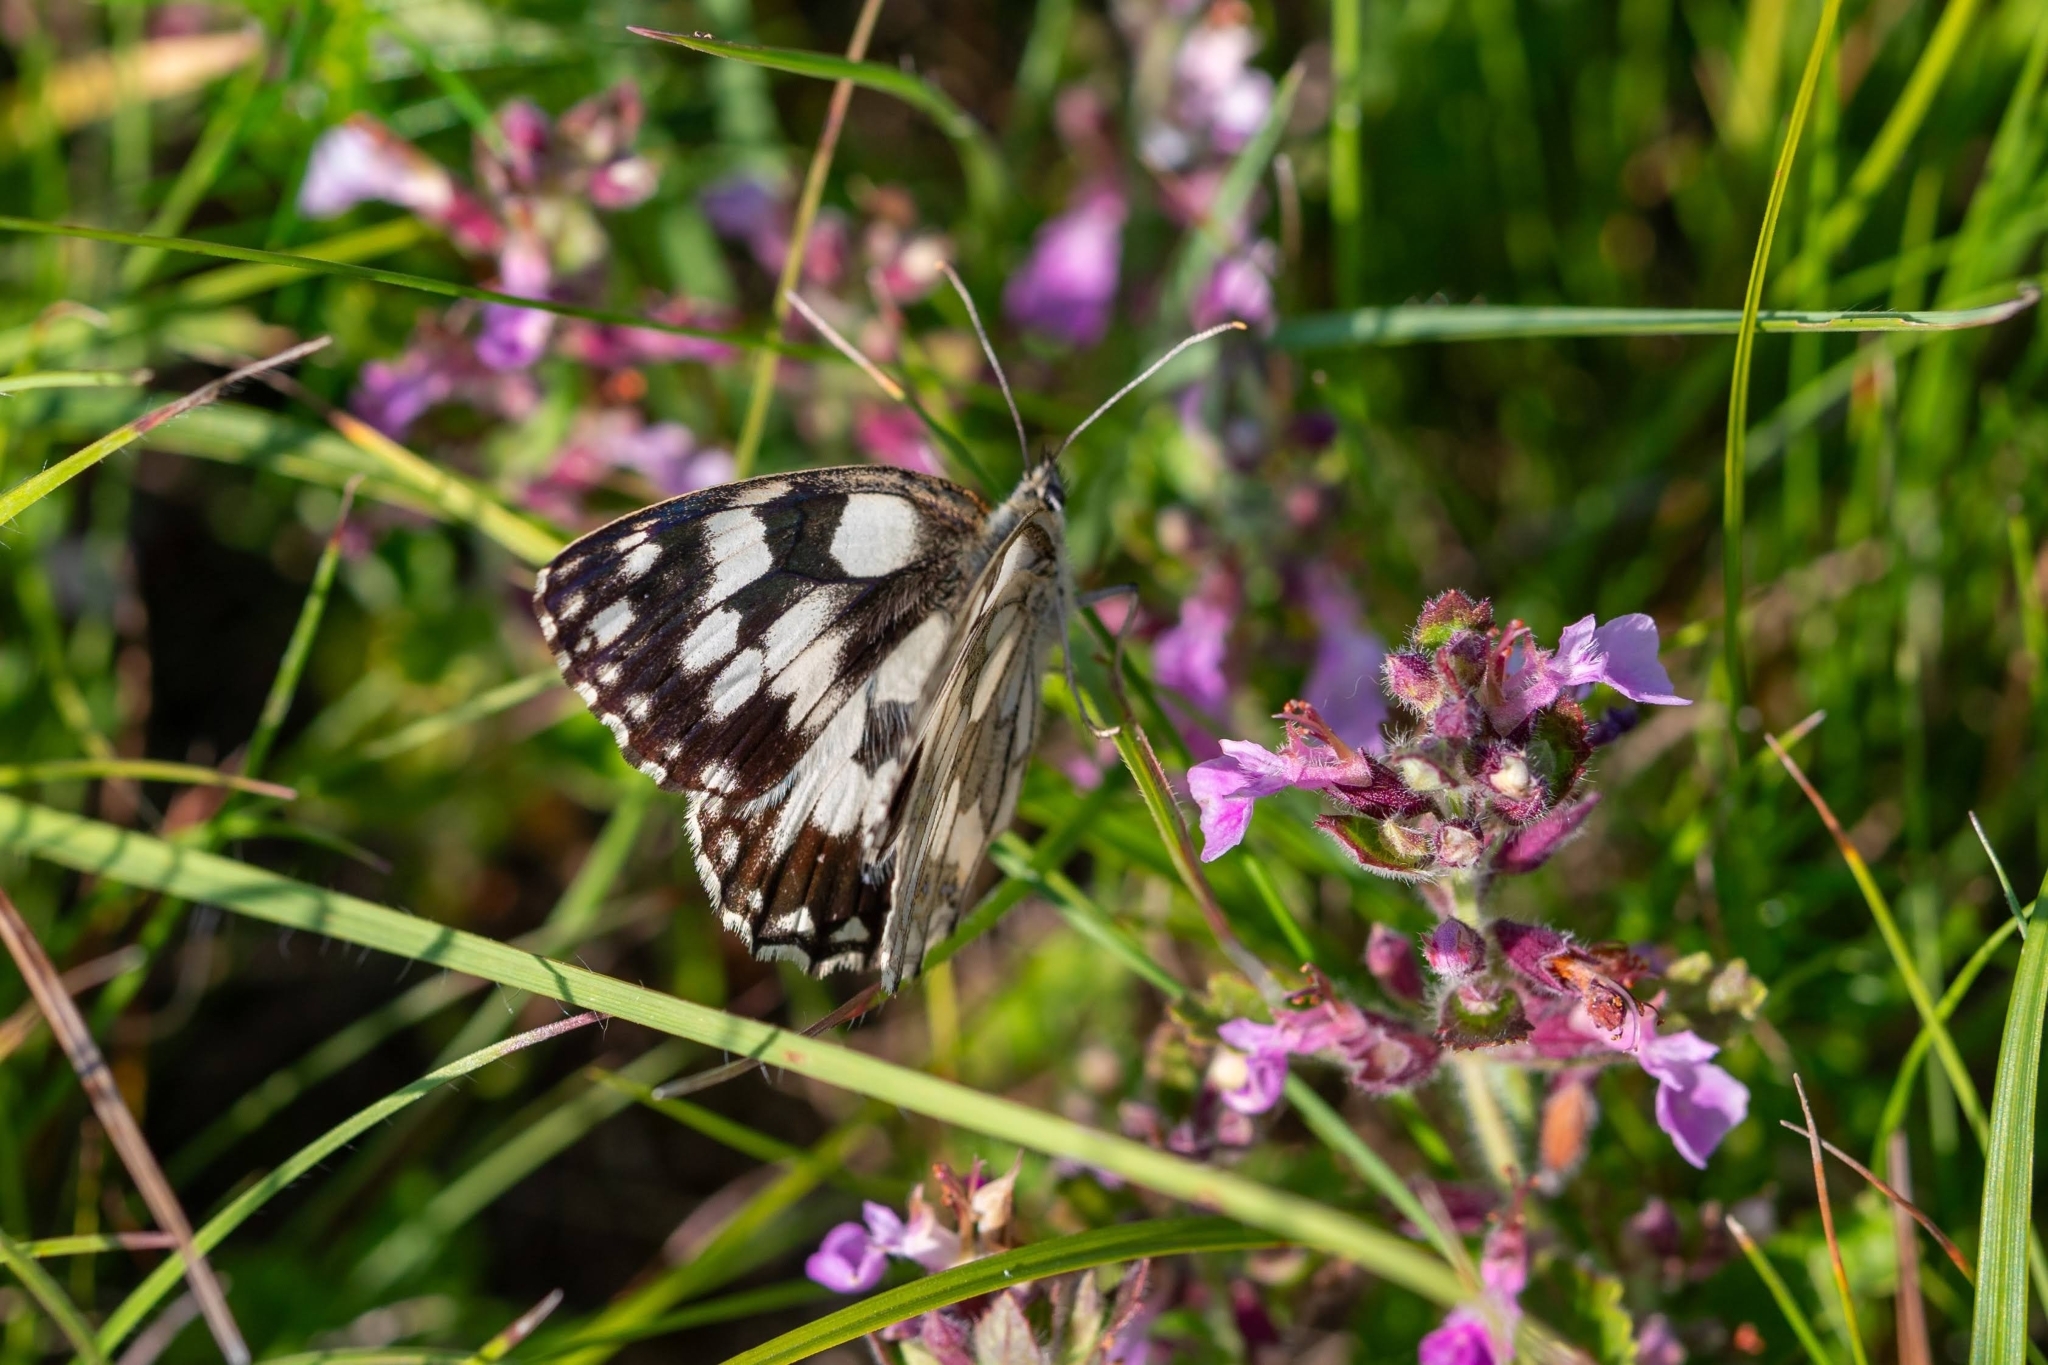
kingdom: Animalia
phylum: Arthropoda
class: Insecta
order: Lepidoptera
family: Nymphalidae
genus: Melanargia
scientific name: Melanargia galathea
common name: Marbled white
